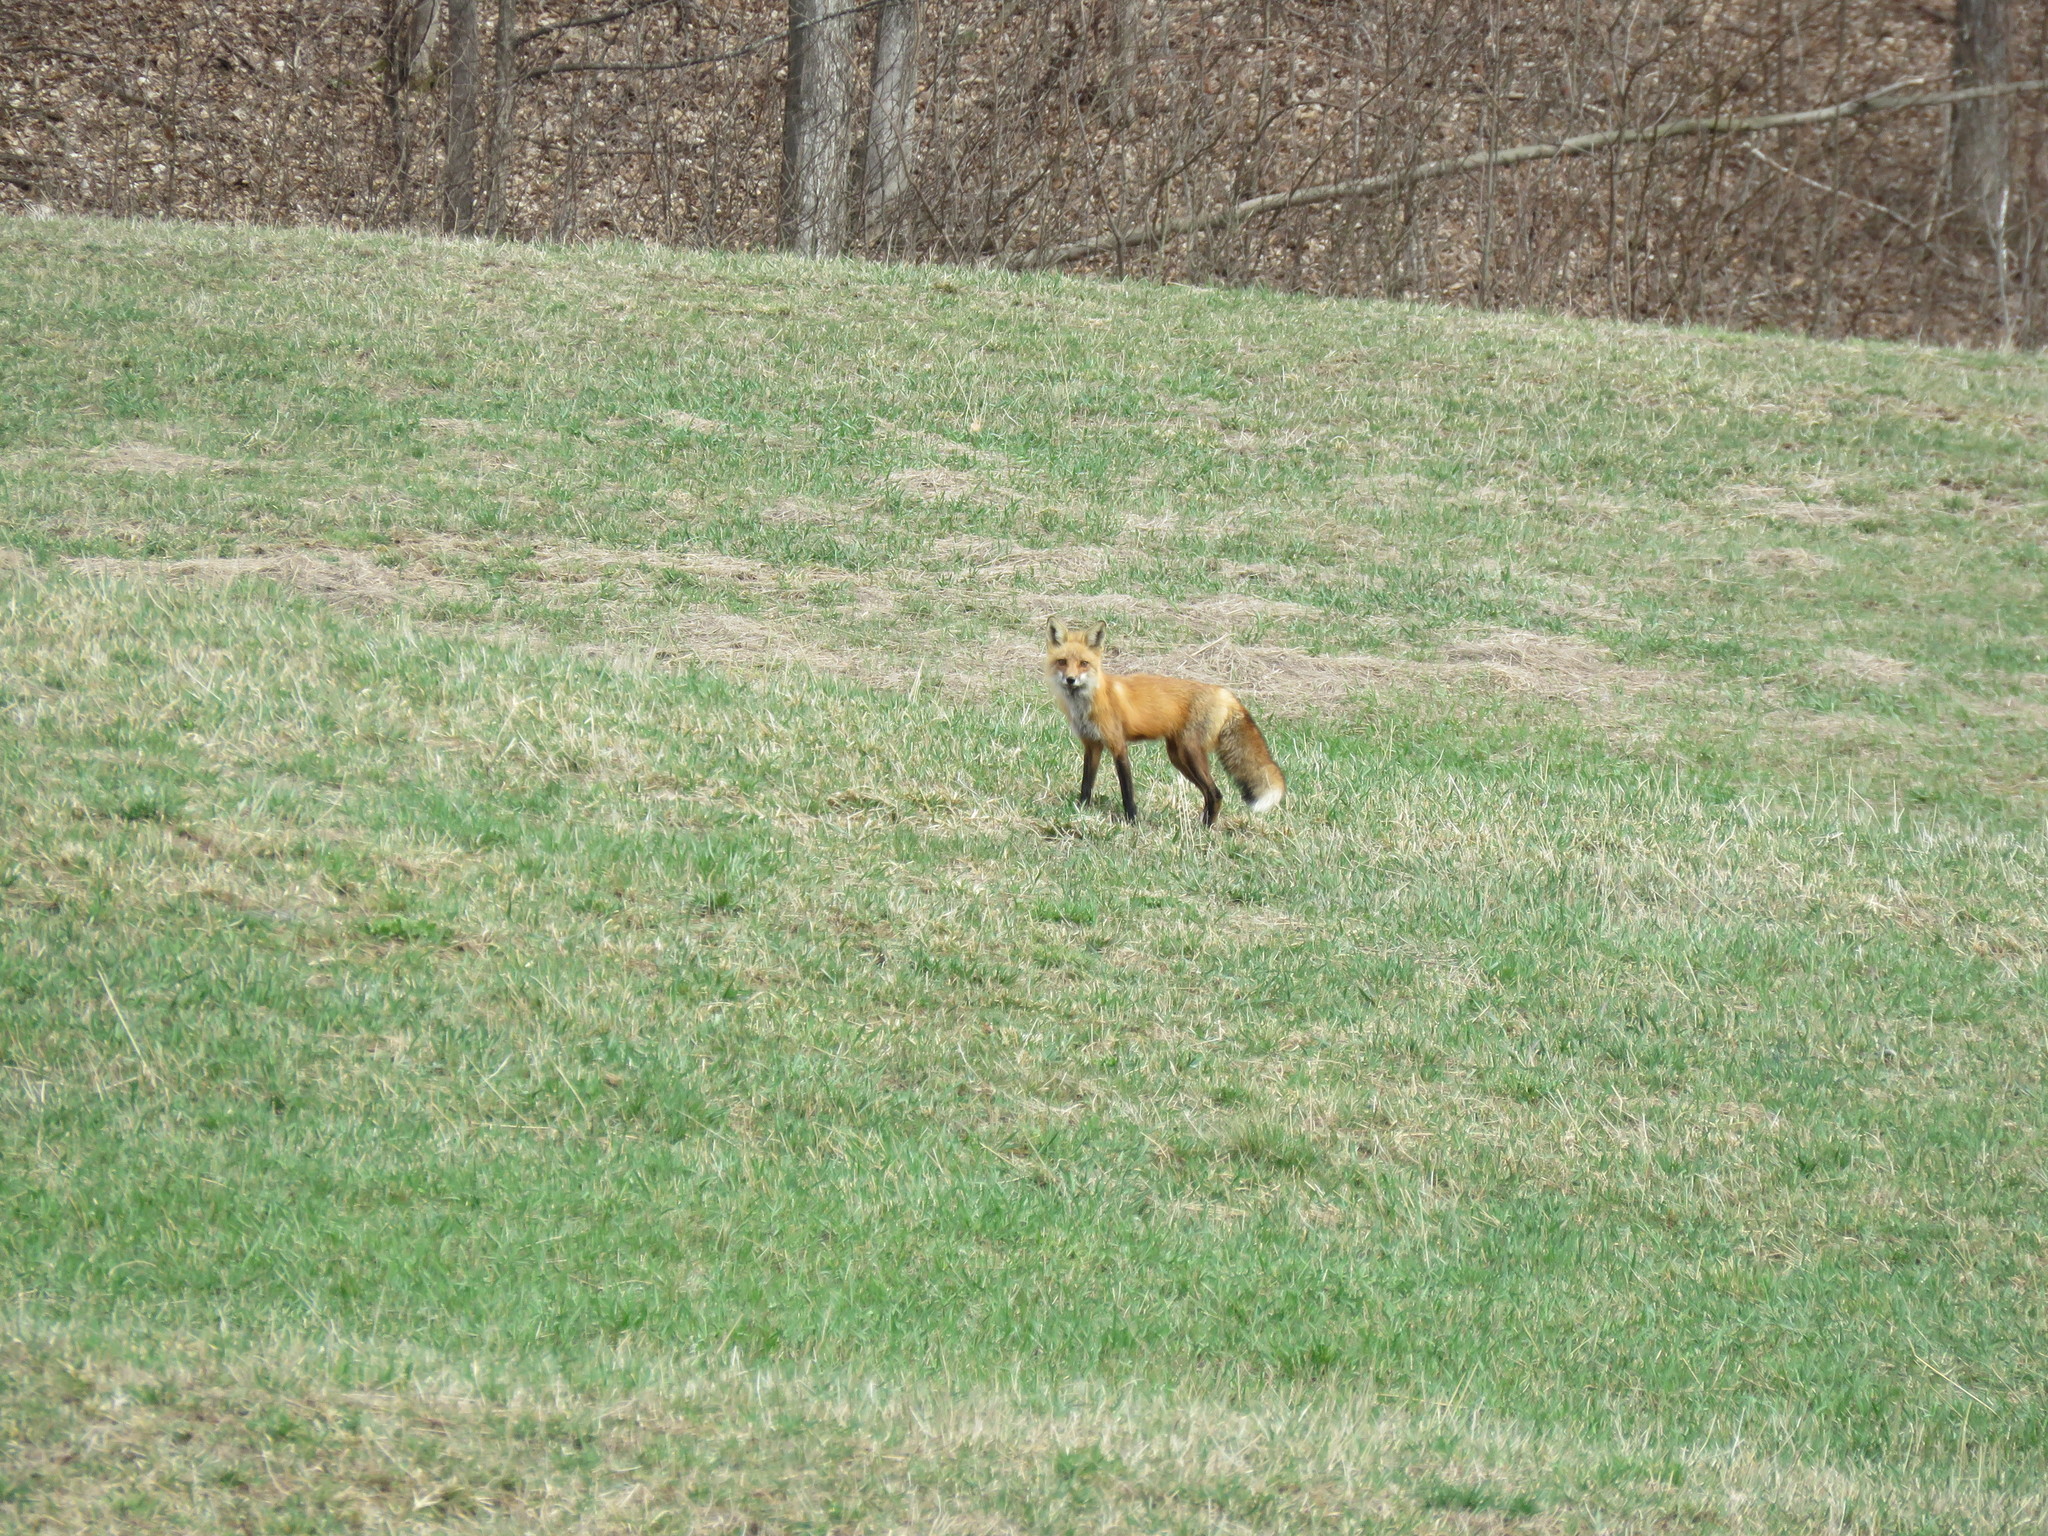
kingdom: Animalia
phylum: Chordata
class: Mammalia
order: Carnivora
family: Canidae
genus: Vulpes
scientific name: Vulpes vulpes
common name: Red fox
